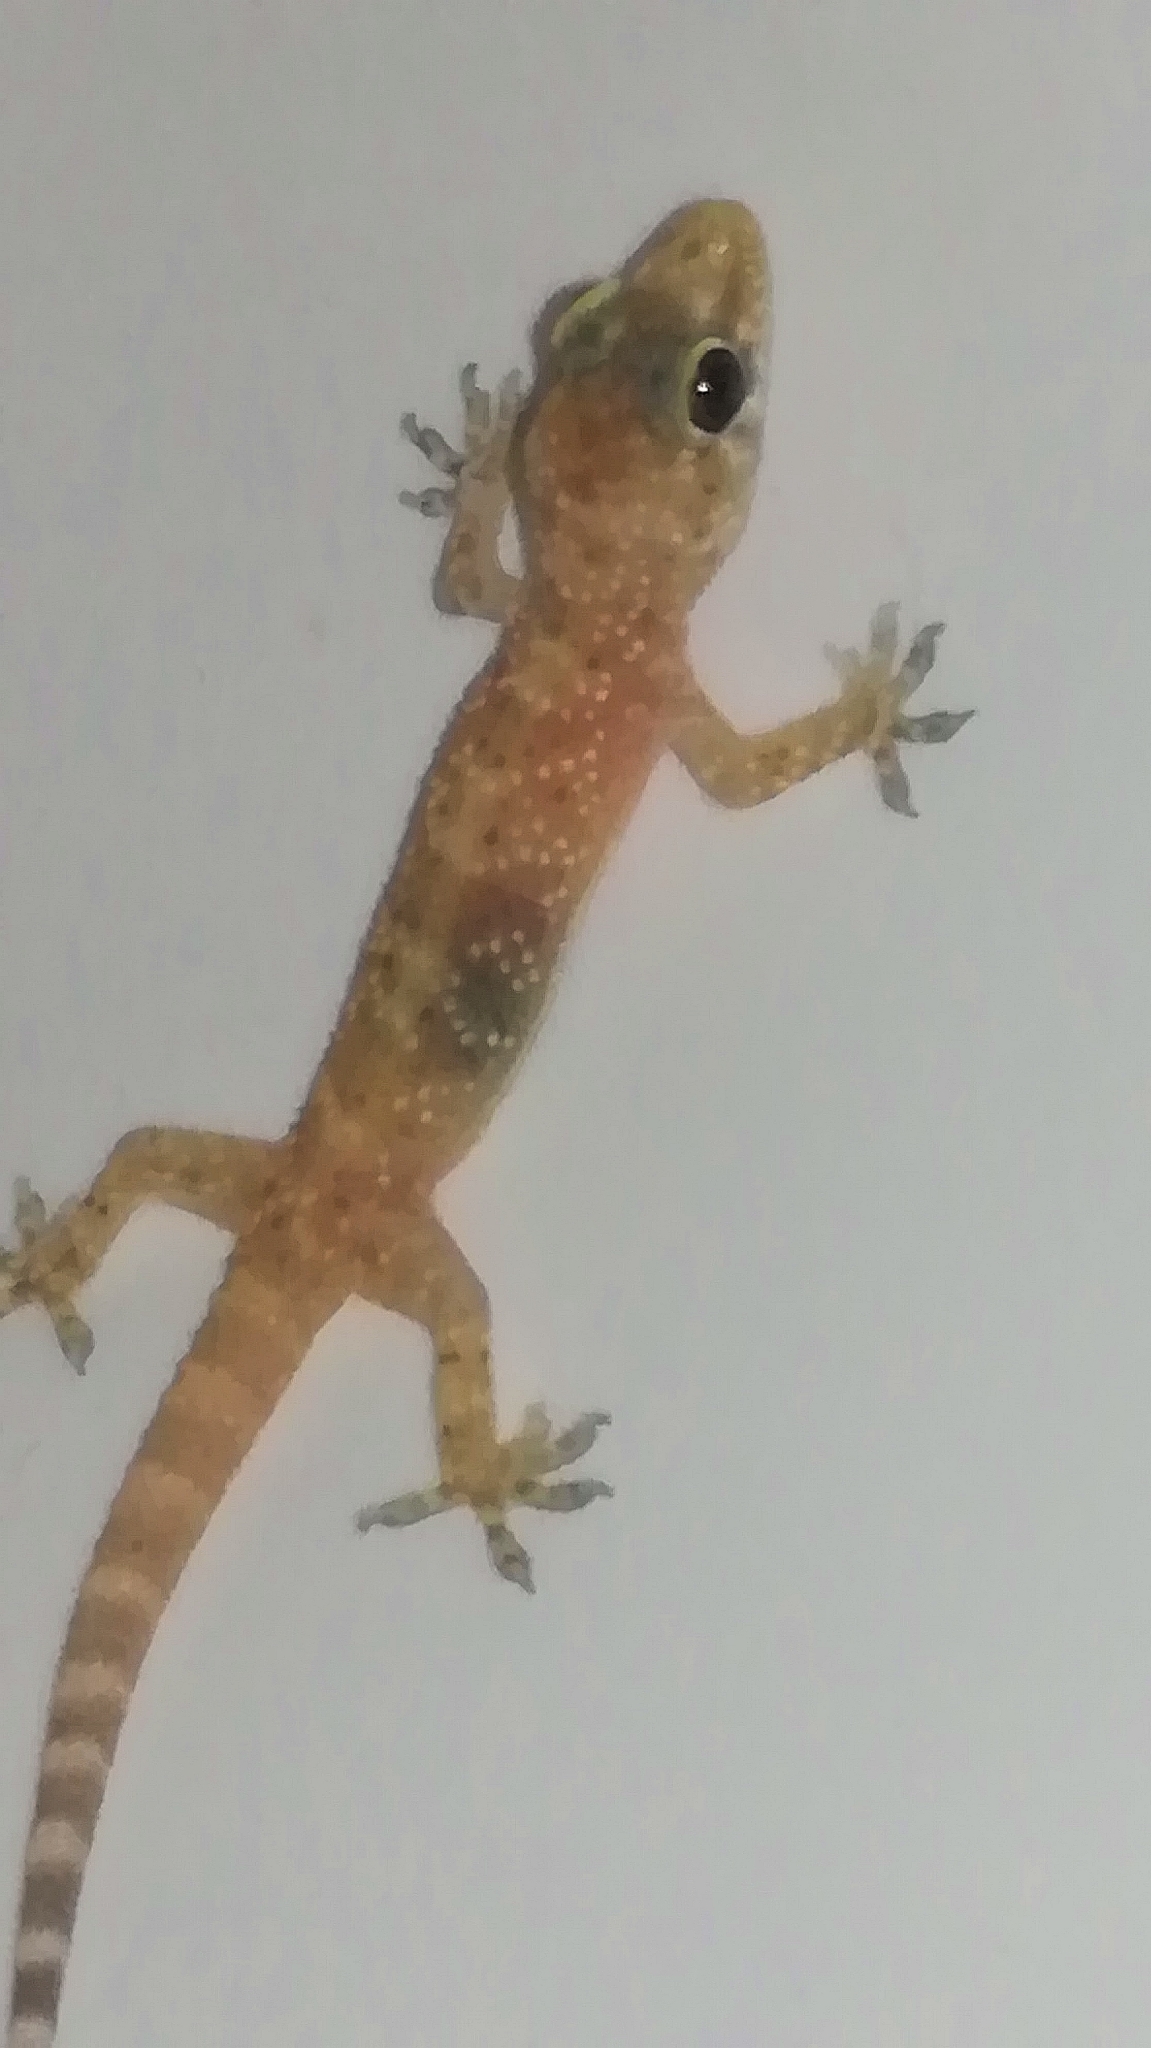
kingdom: Animalia
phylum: Chordata
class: Squamata
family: Gekkonidae
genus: Hemidactylus
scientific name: Hemidactylus turcicus
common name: Turkish gecko
